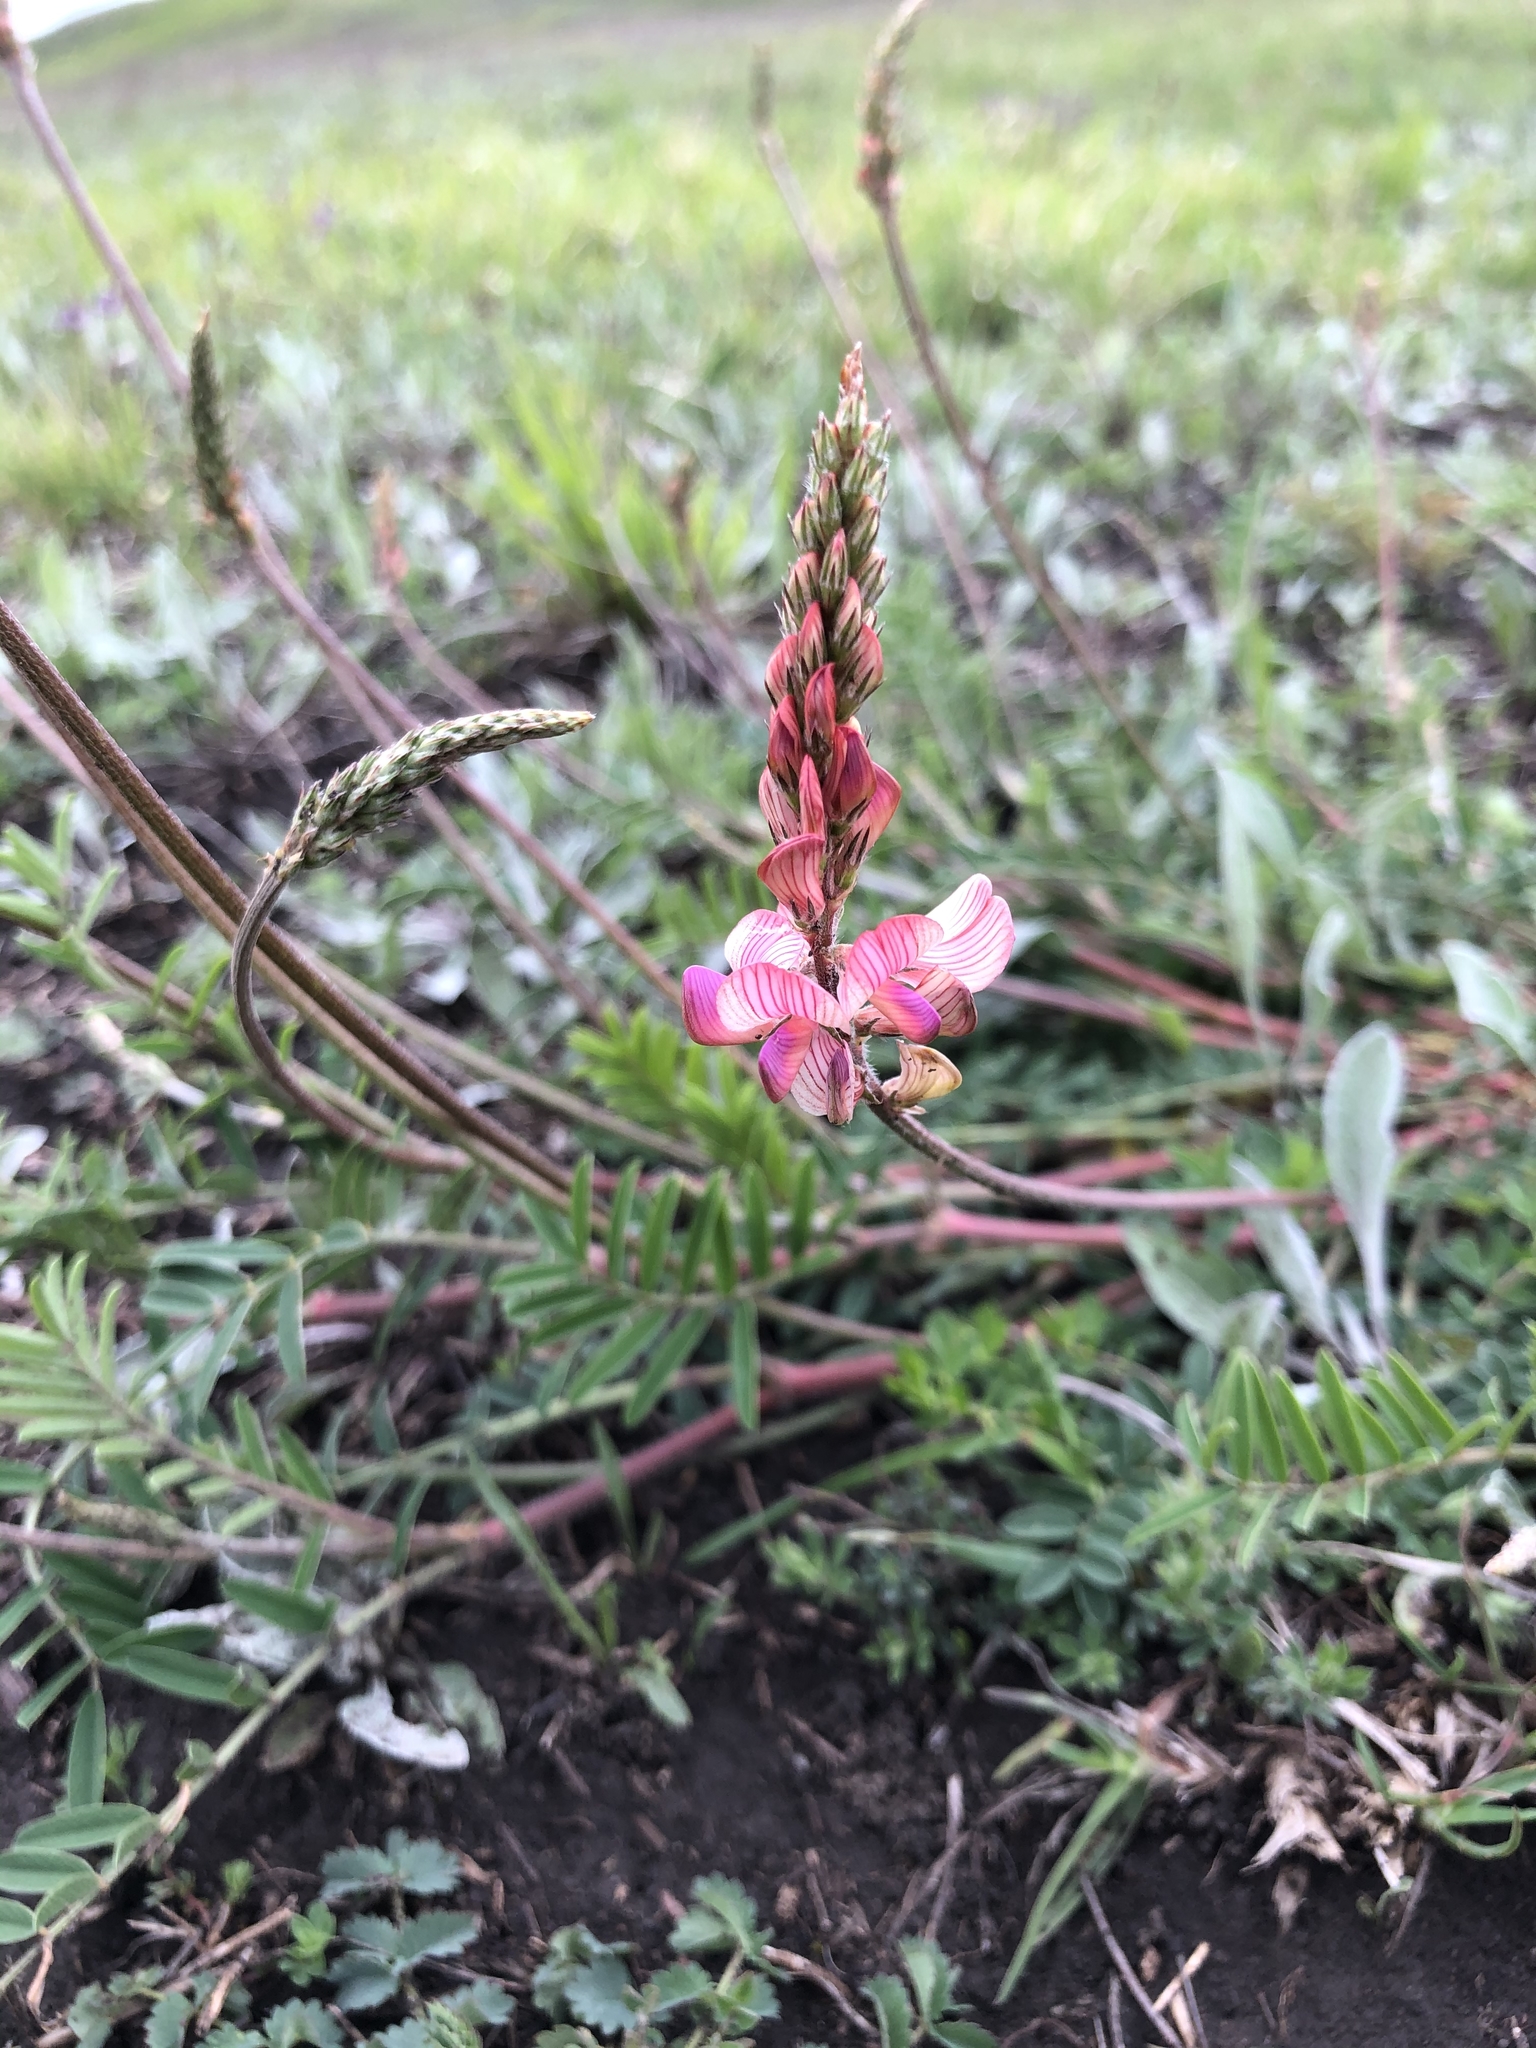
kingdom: Plantae
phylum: Tracheophyta
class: Magnoliopsida
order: Fabales
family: Fabaceae
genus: Onobrychis
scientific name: Onobrychis viciifolia
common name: Sainfoin
